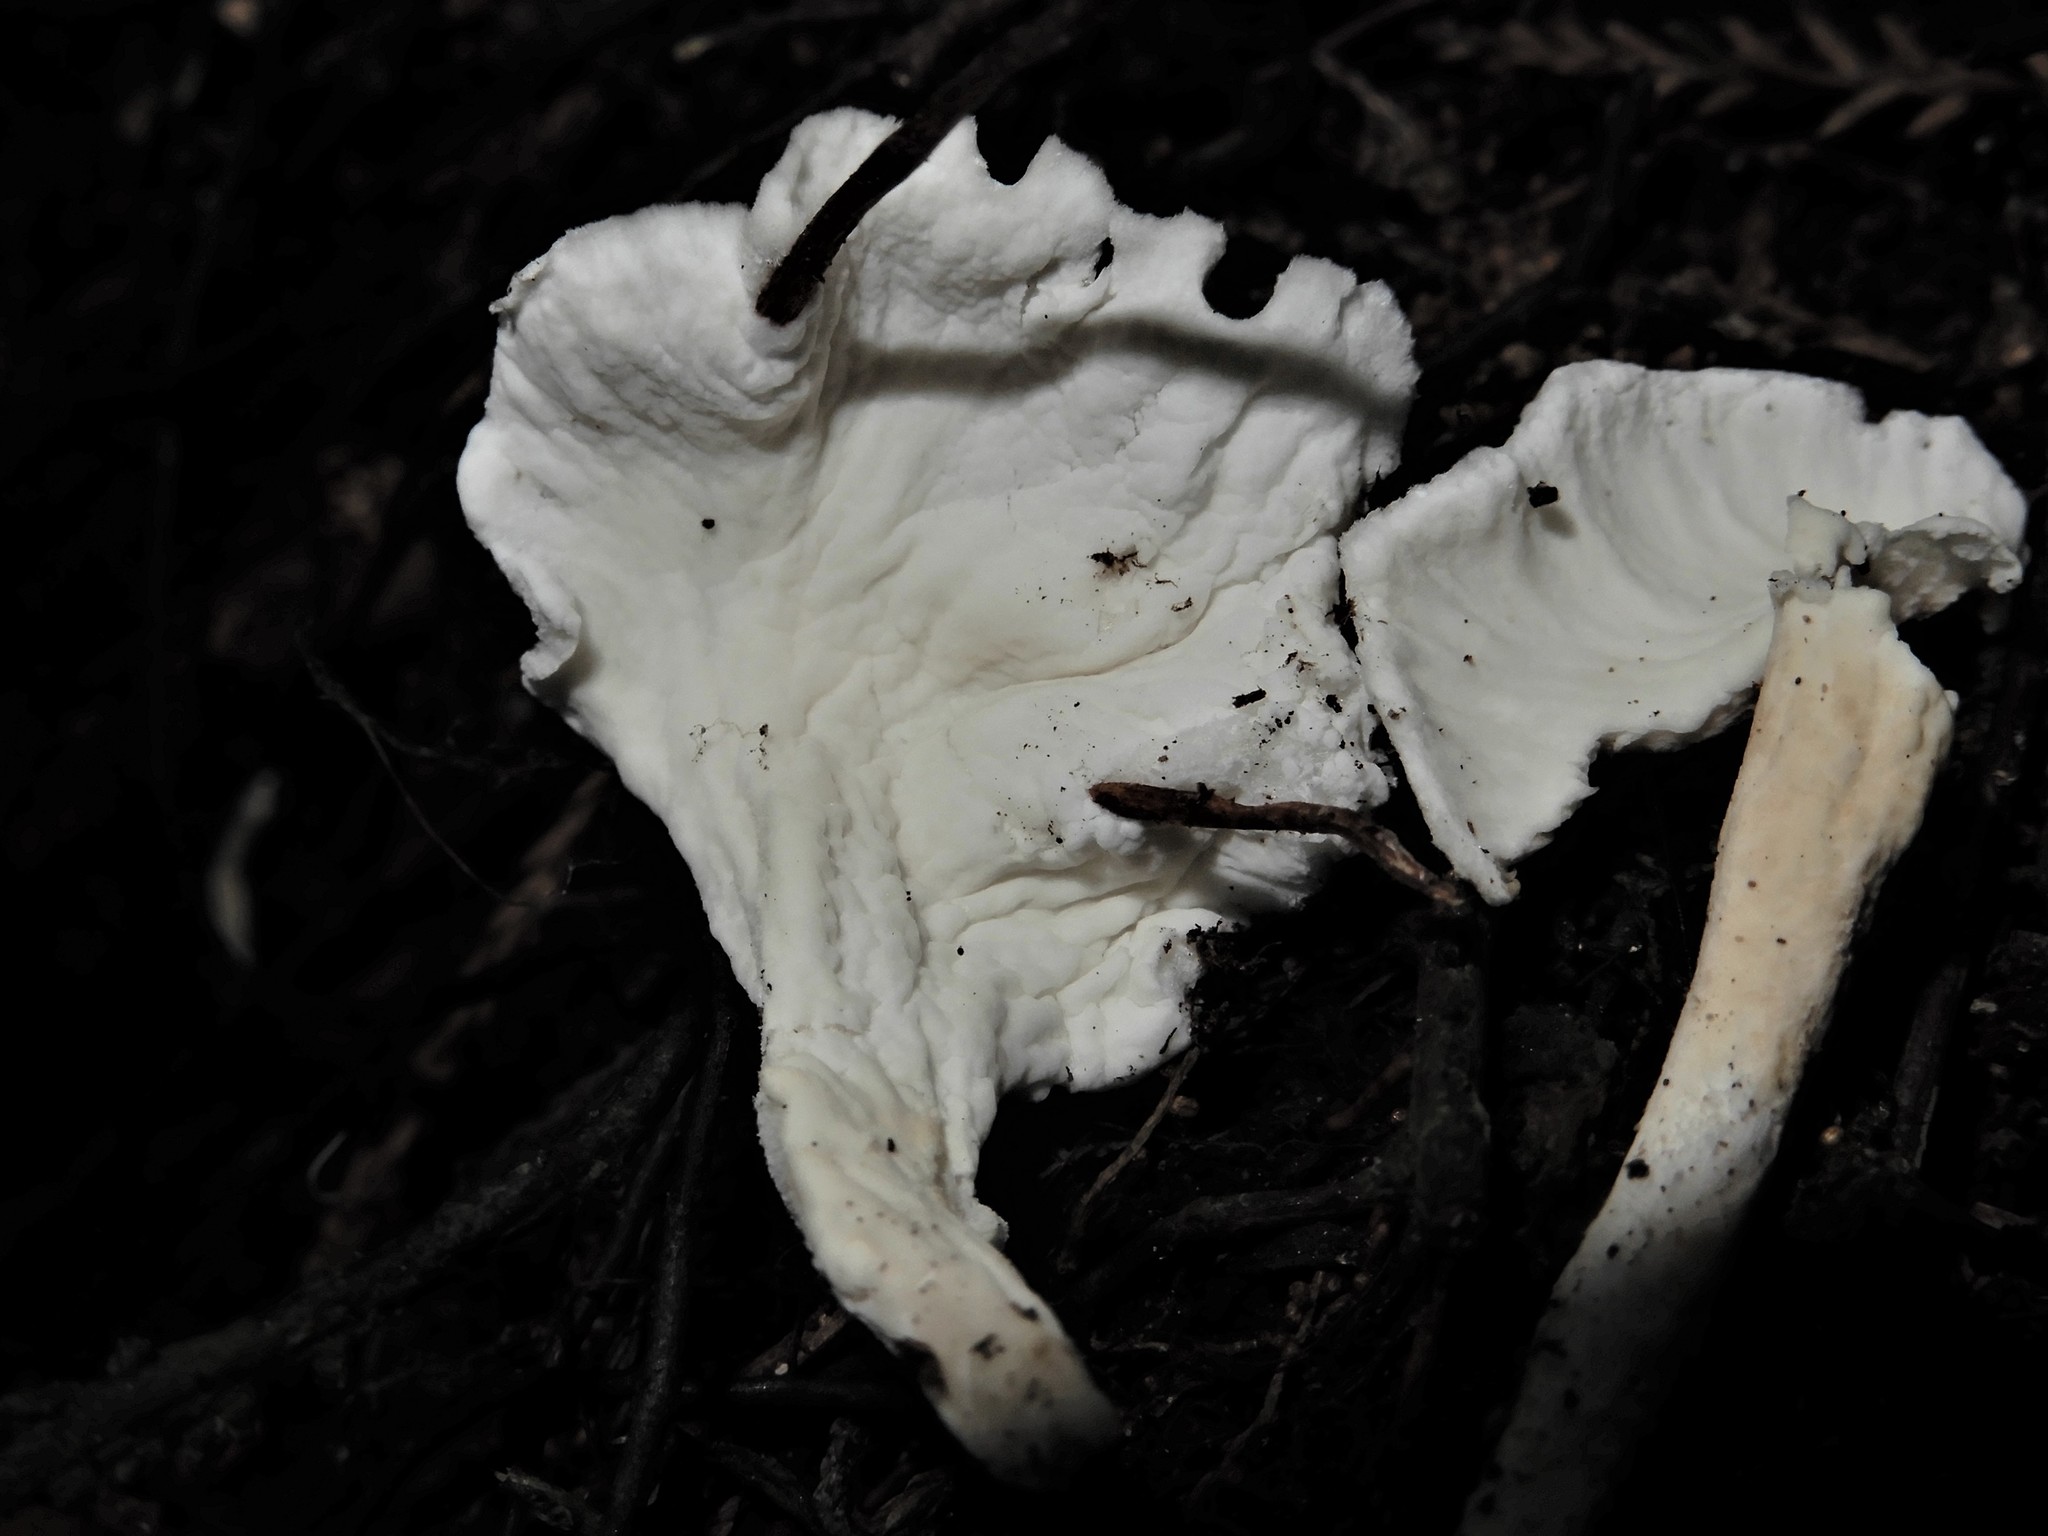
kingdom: Fungi
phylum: Basidiomycota
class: Agaricomycetes
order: Amylocorticiales
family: Amylocorticiaceae
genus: Podoserpula
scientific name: Podoserpula
